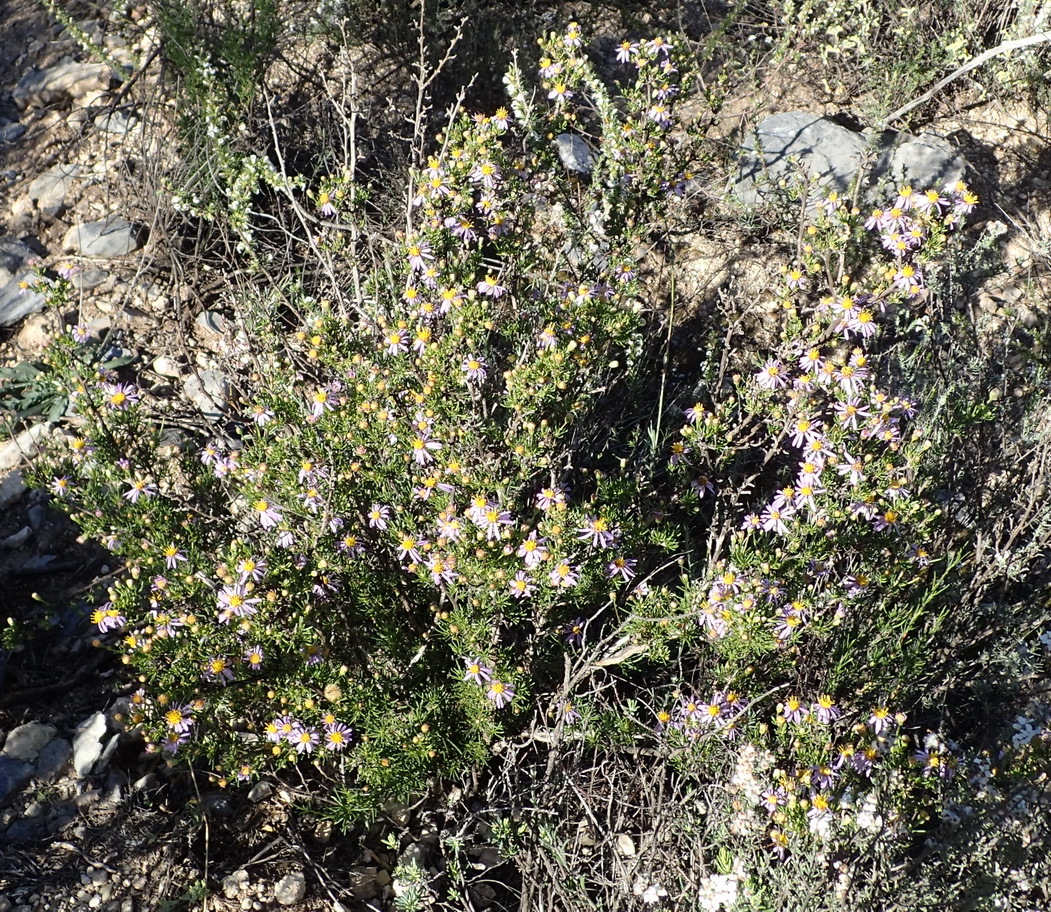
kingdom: Plantae
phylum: Tracheophyta
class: Magnoliopsida
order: Asterales
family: Asteraceae
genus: Felicia
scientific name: Felicia filifolia
